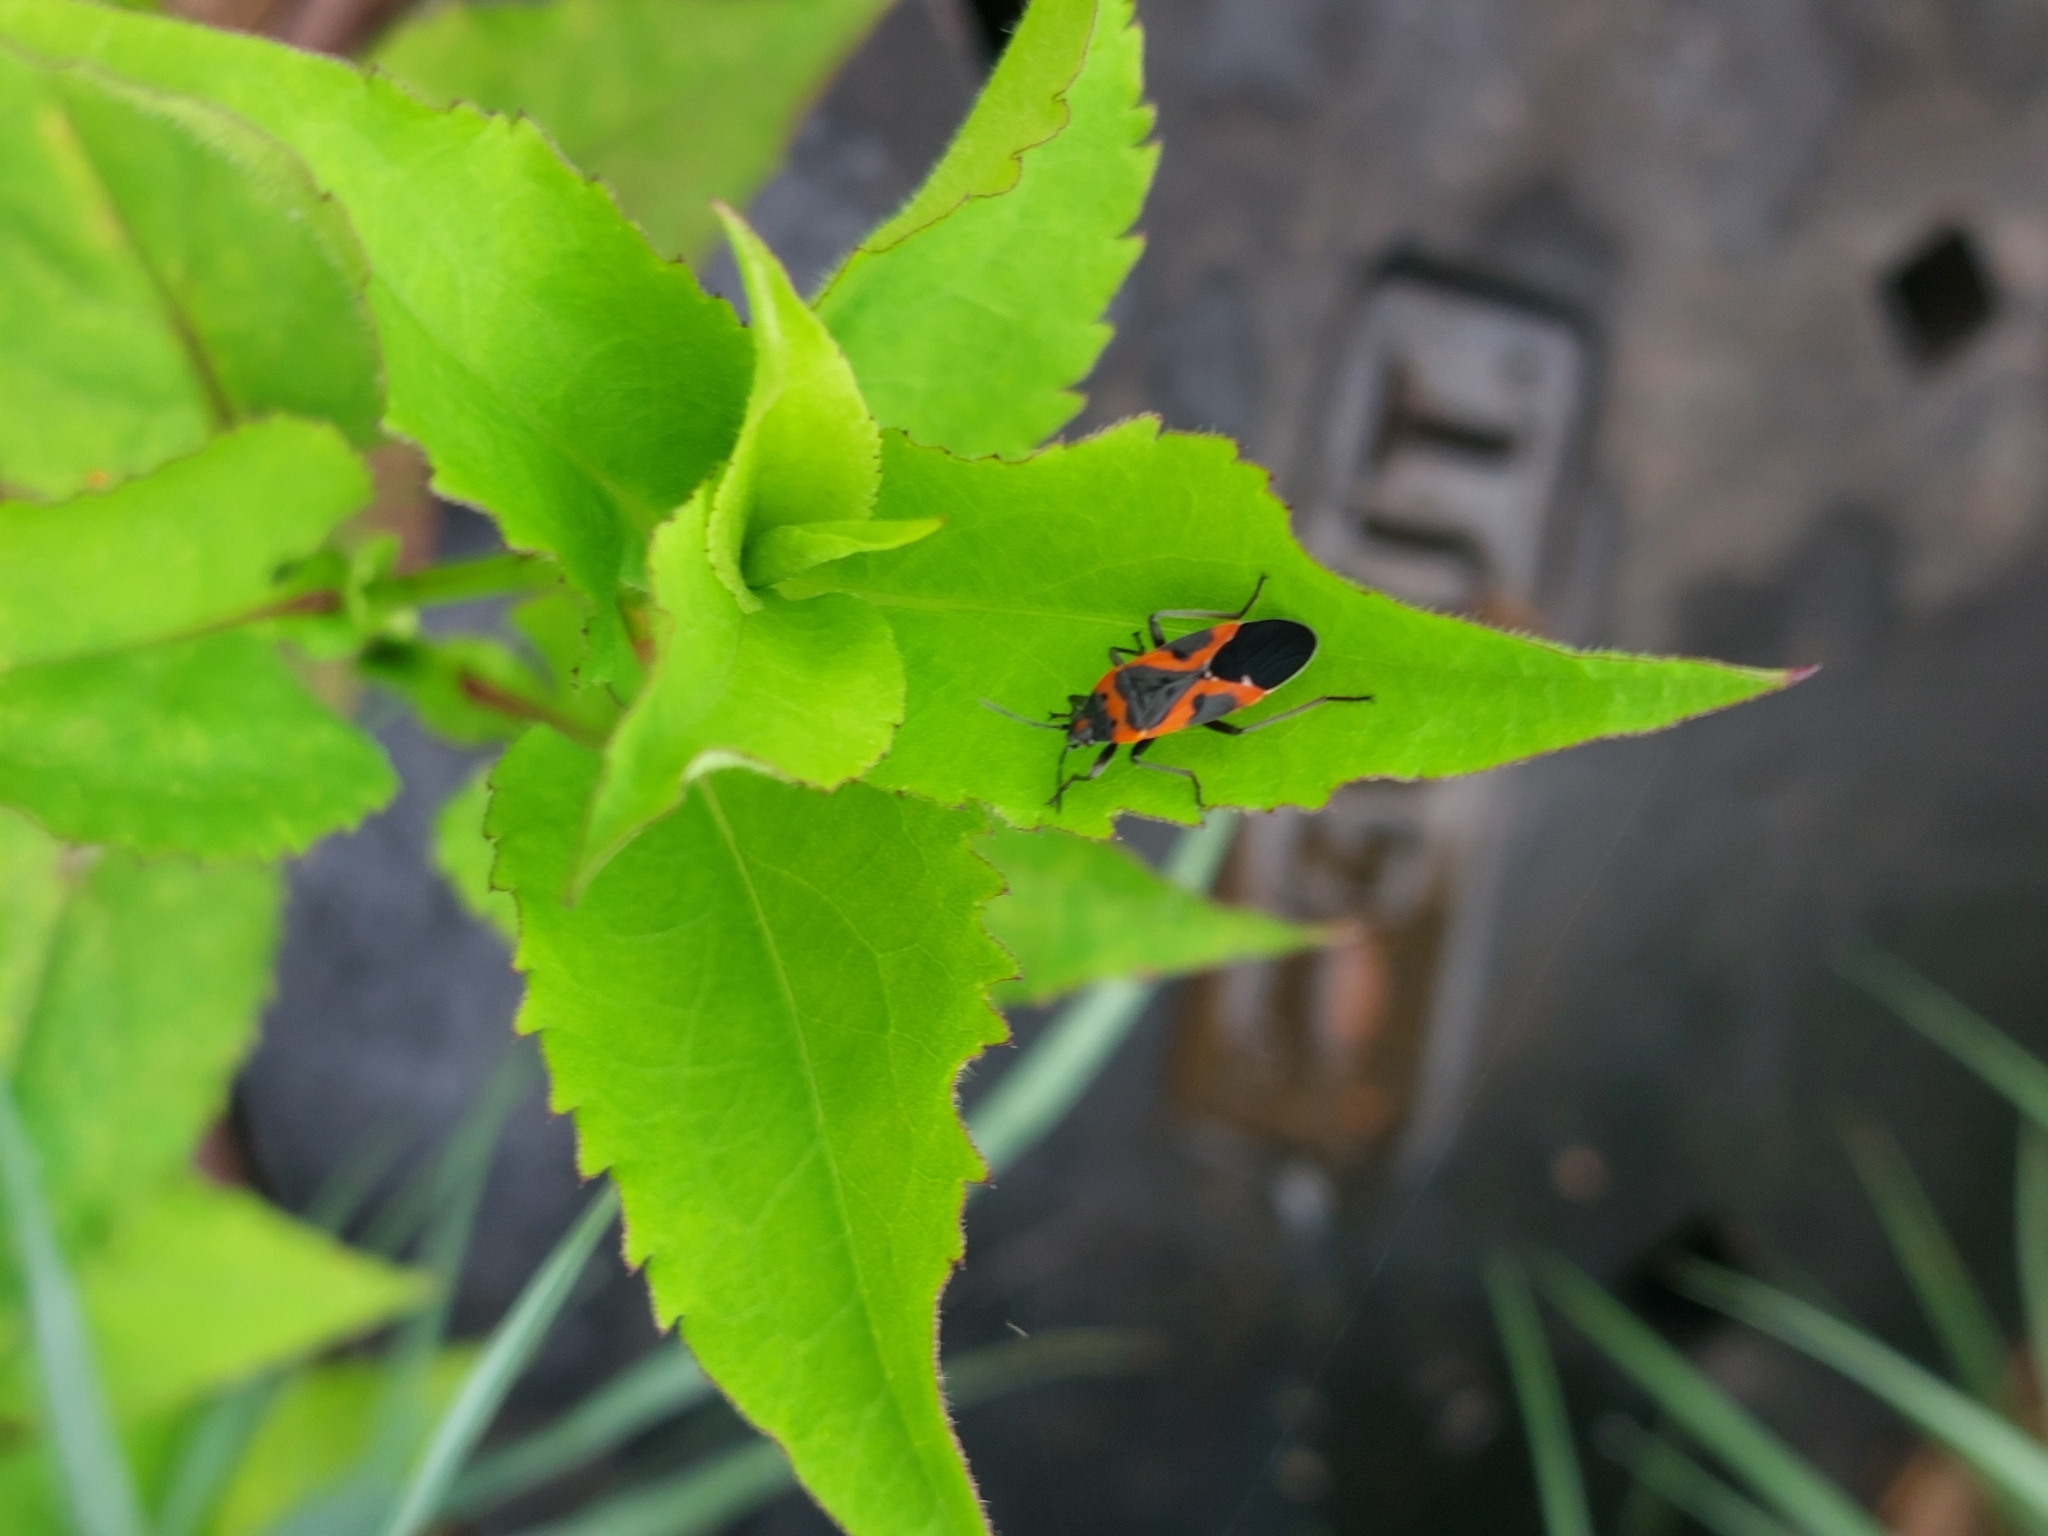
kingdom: Animalia
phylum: Arthropoda
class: Insecta
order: Hemiptera
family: Lygaeidae
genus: Lygaeus
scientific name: Lygaeus kalmii
